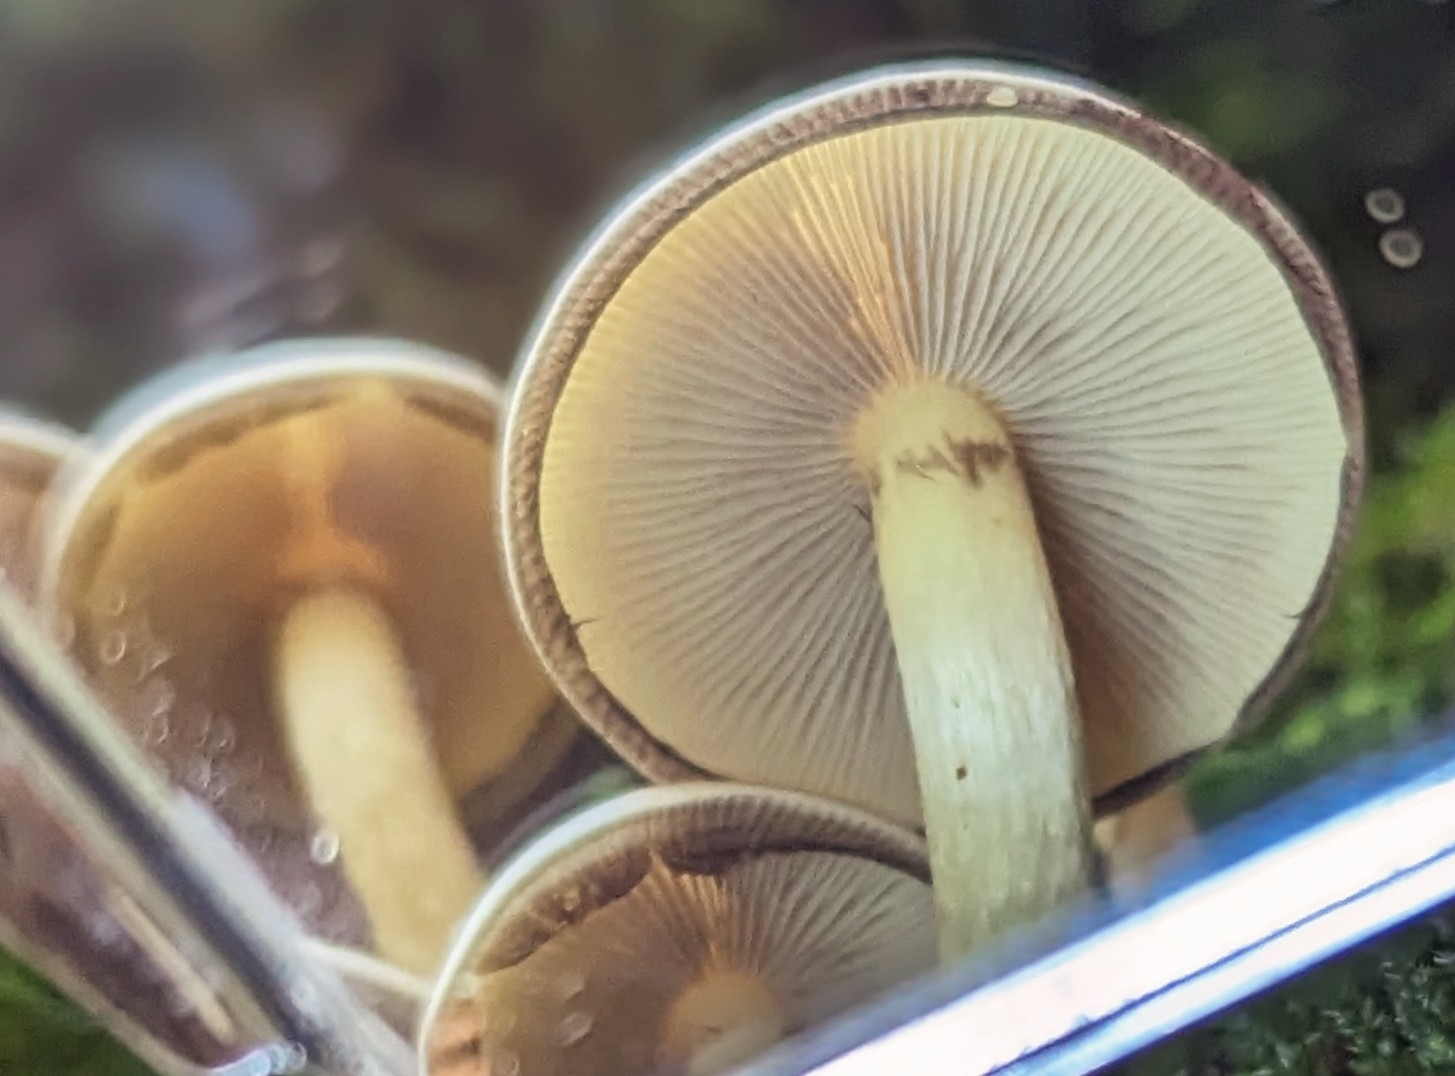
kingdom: Fungi
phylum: Basidiomycota
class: Agaricomycetes
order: Agaricales
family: Strophariaceae
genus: Hypholoma
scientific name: Hypholoma fasciculare
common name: Sulphur tuft
